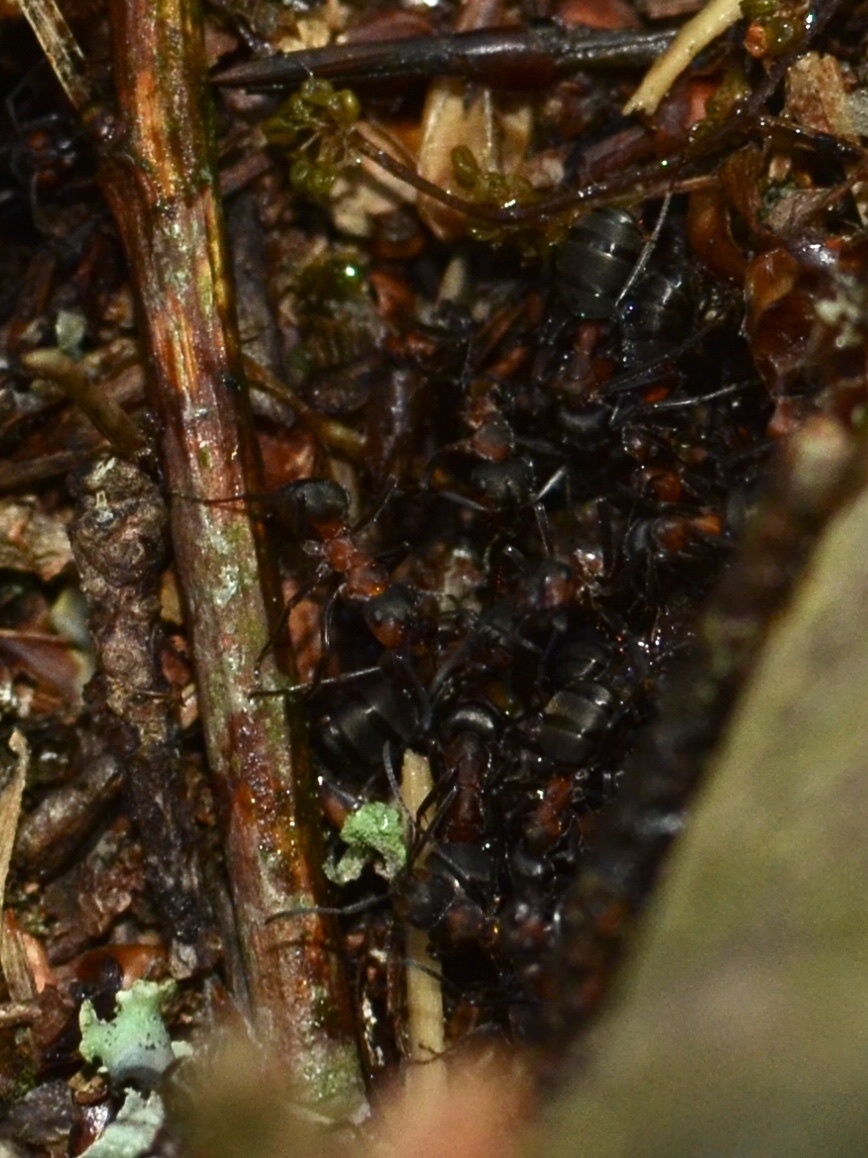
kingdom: Animalia
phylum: Arthropoda
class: Insecta
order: Hymenoptera
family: Formicidae
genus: Formica
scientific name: Formica
